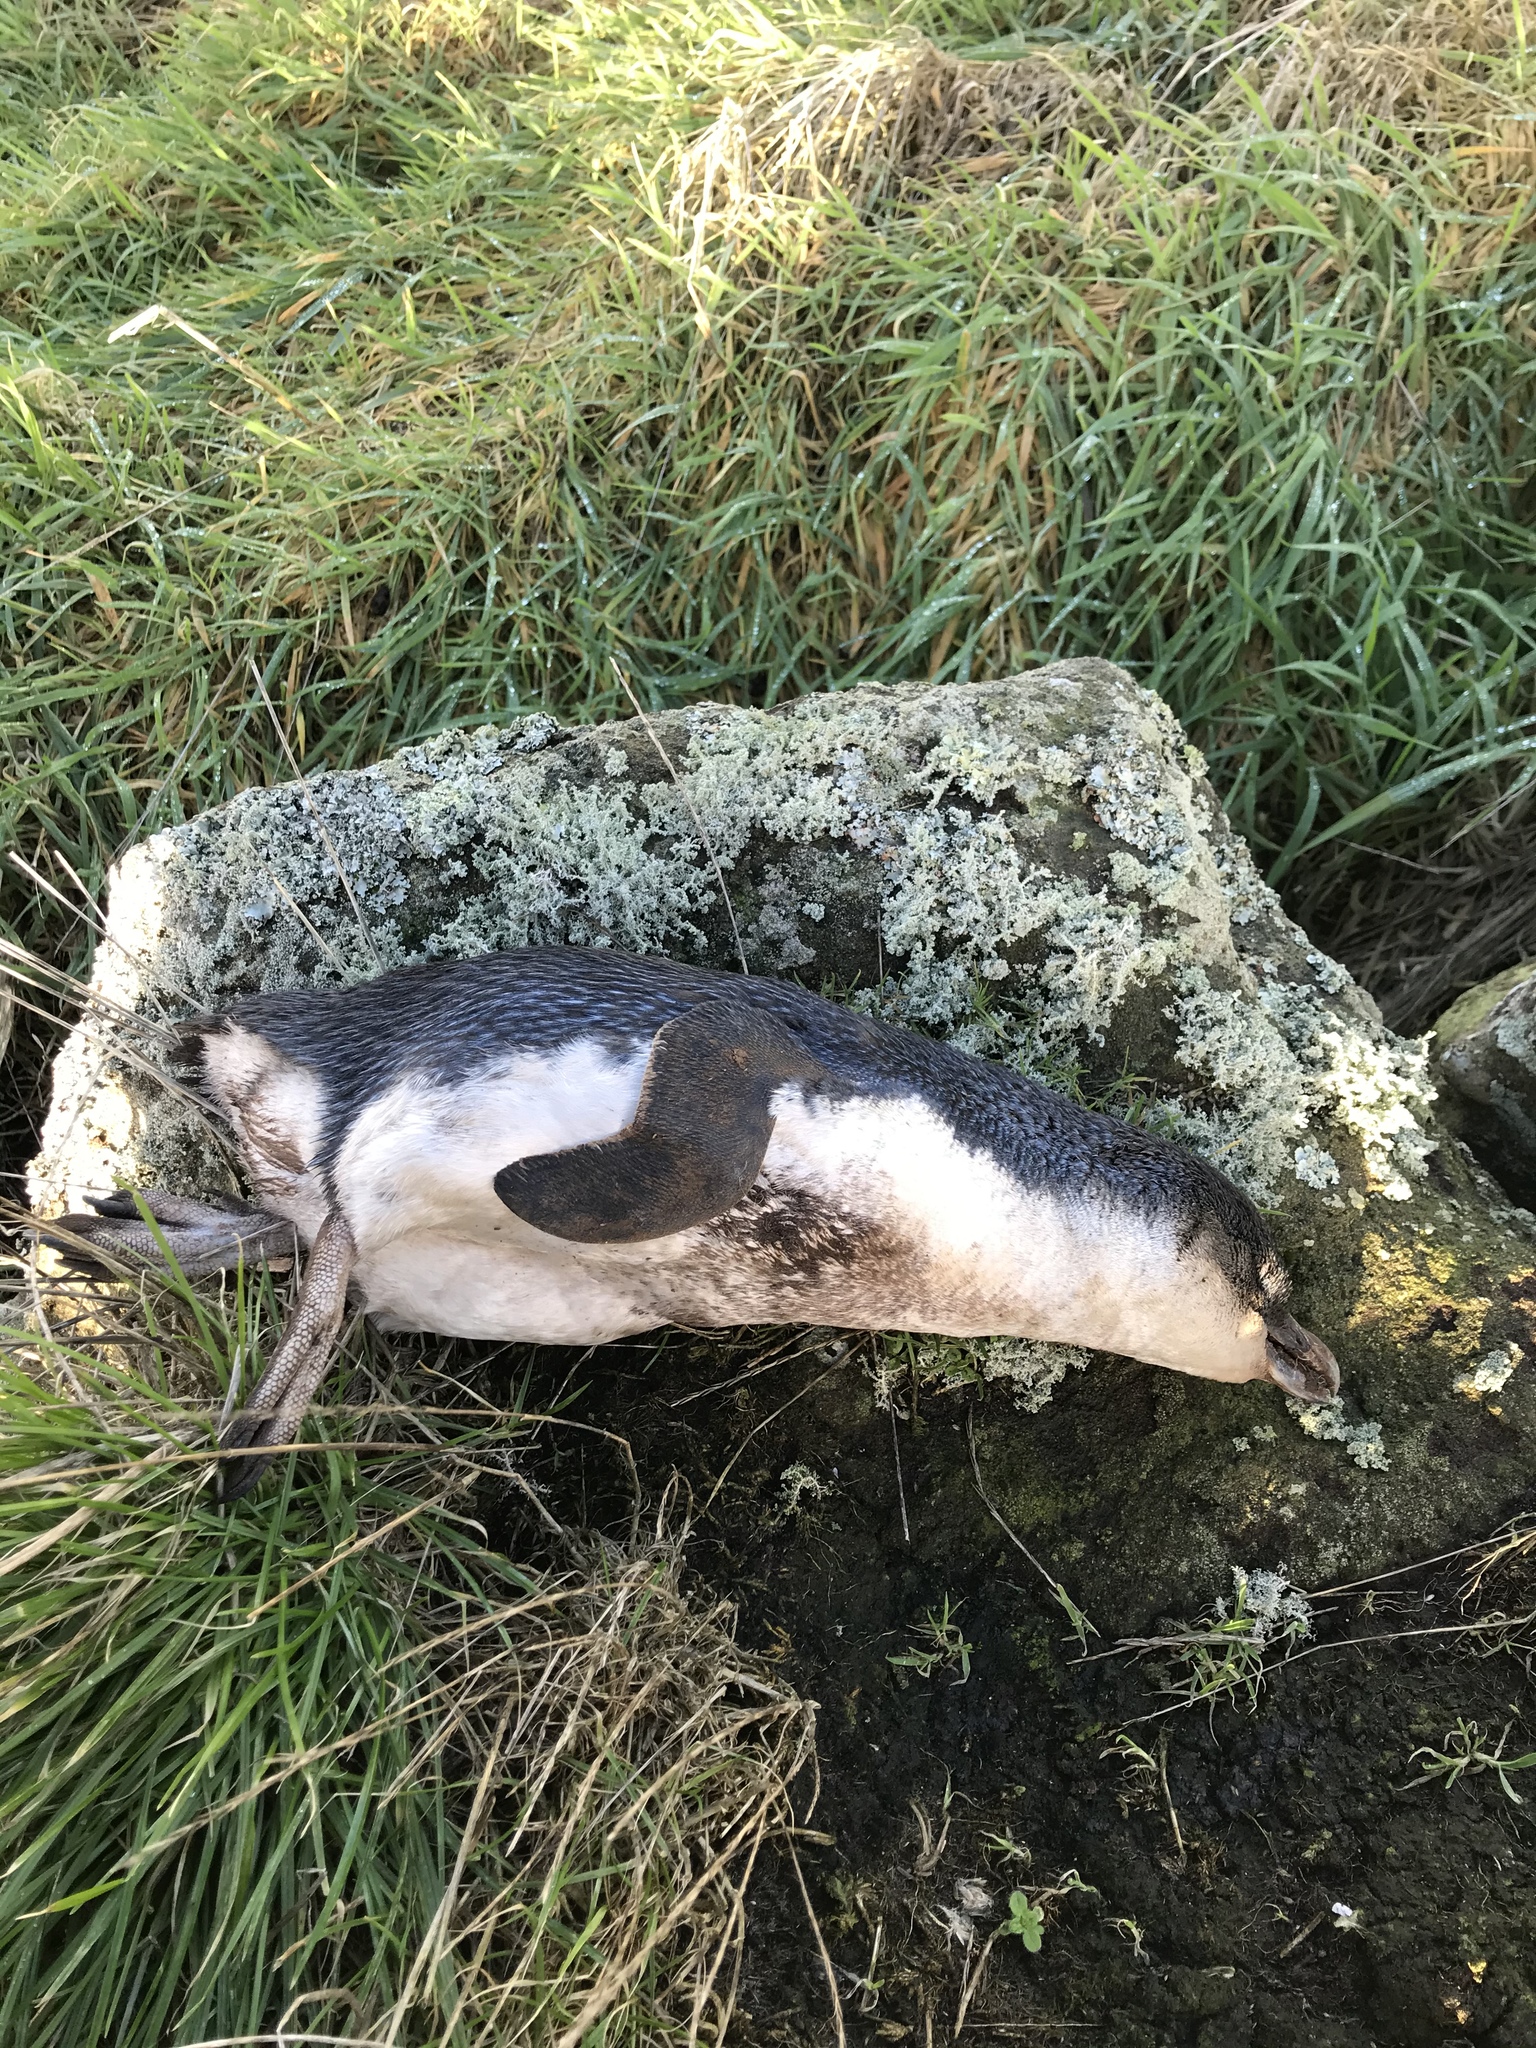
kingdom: Animalia
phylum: Chordata
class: Aves
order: Sphenisciformes
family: Spheniscidae
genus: Eudyptula
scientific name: Eudyptula minor
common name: Little penguin
